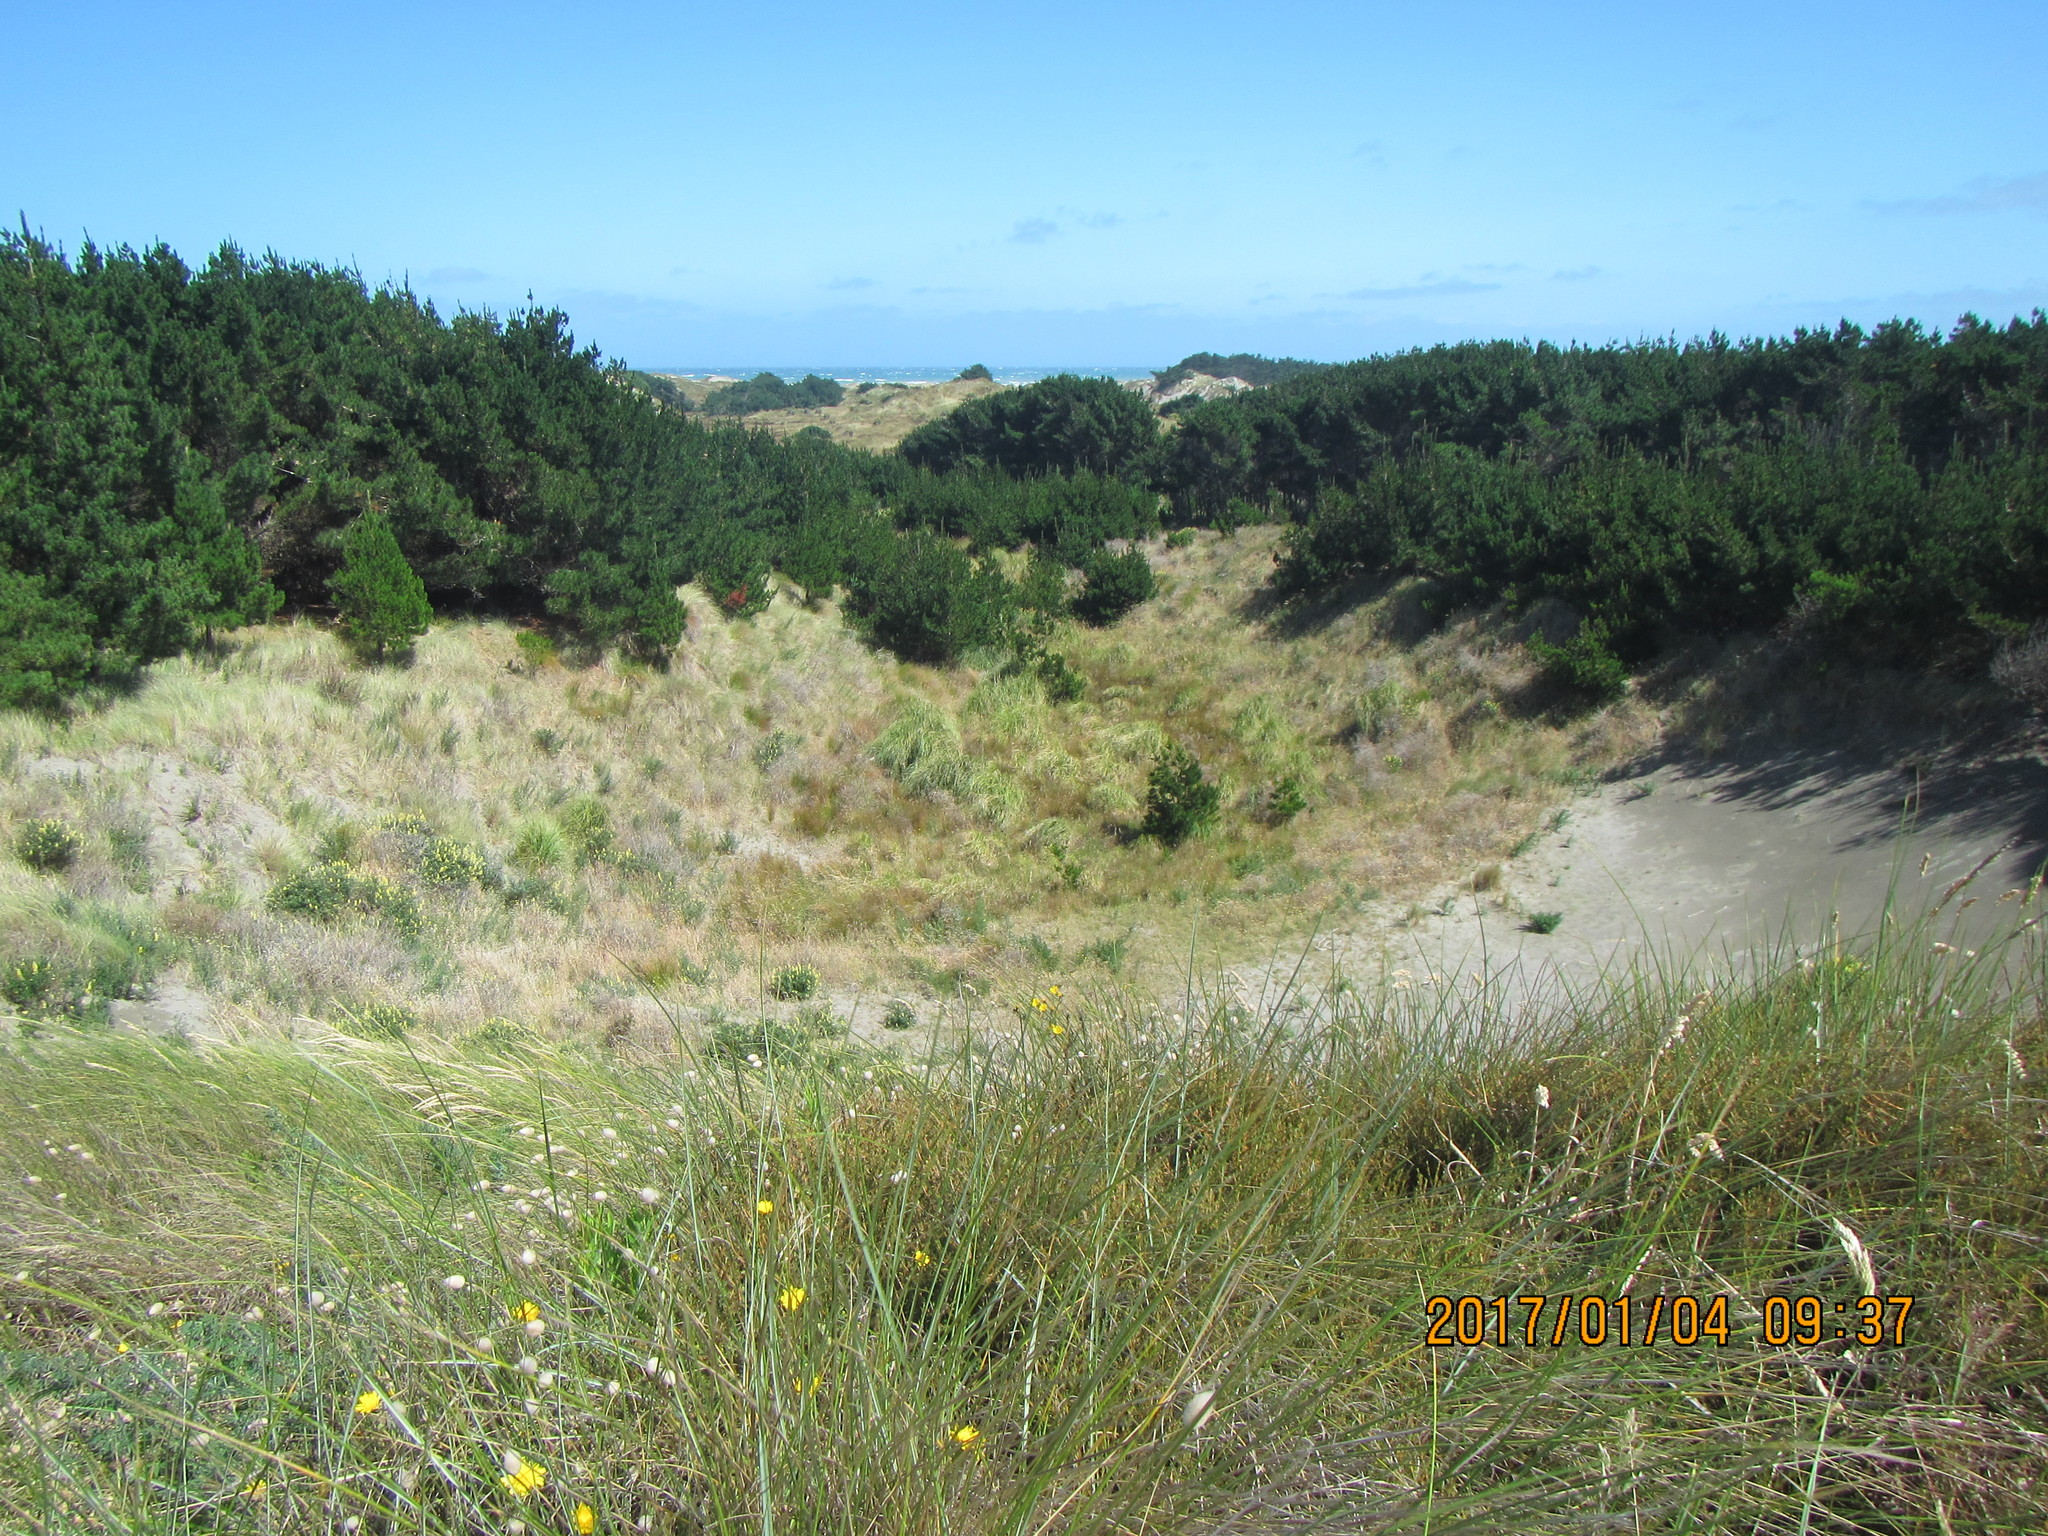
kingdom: Plantae
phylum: Tracheophyta
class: Magnoliopsida
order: Gentianales
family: Rubiaceae
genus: Coprosma
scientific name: Coprosma acerosa
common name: Sand coprosma
